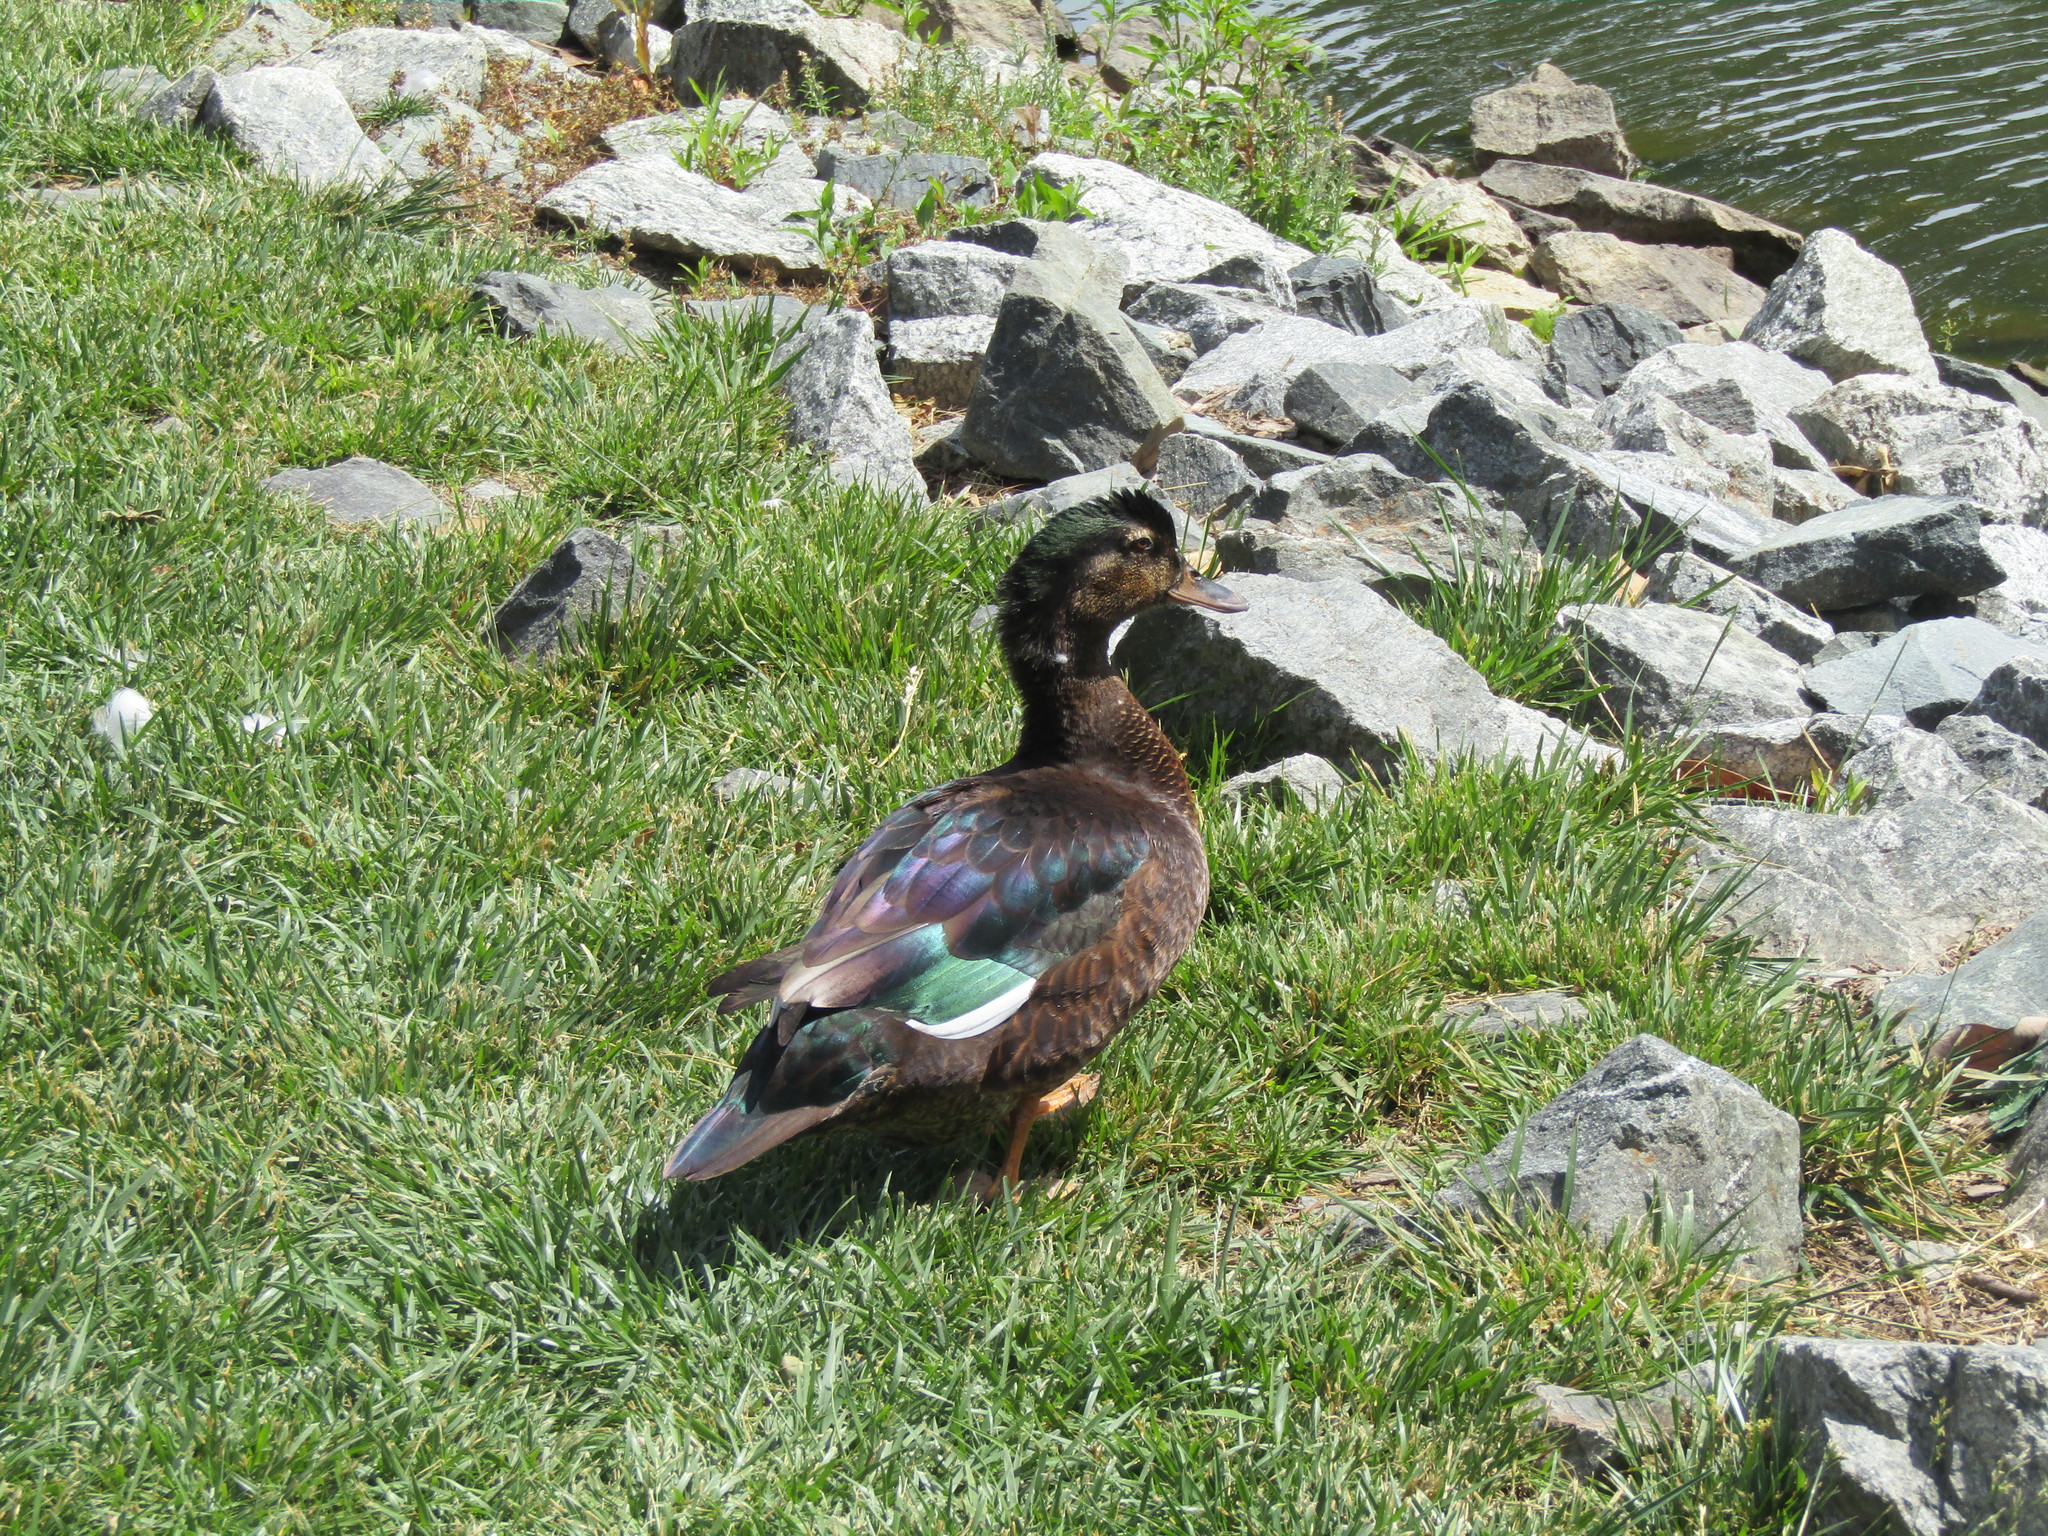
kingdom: Animalia
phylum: Chordata
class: Aves
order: Anseriformes
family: Anatidae
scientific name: Anatidae
